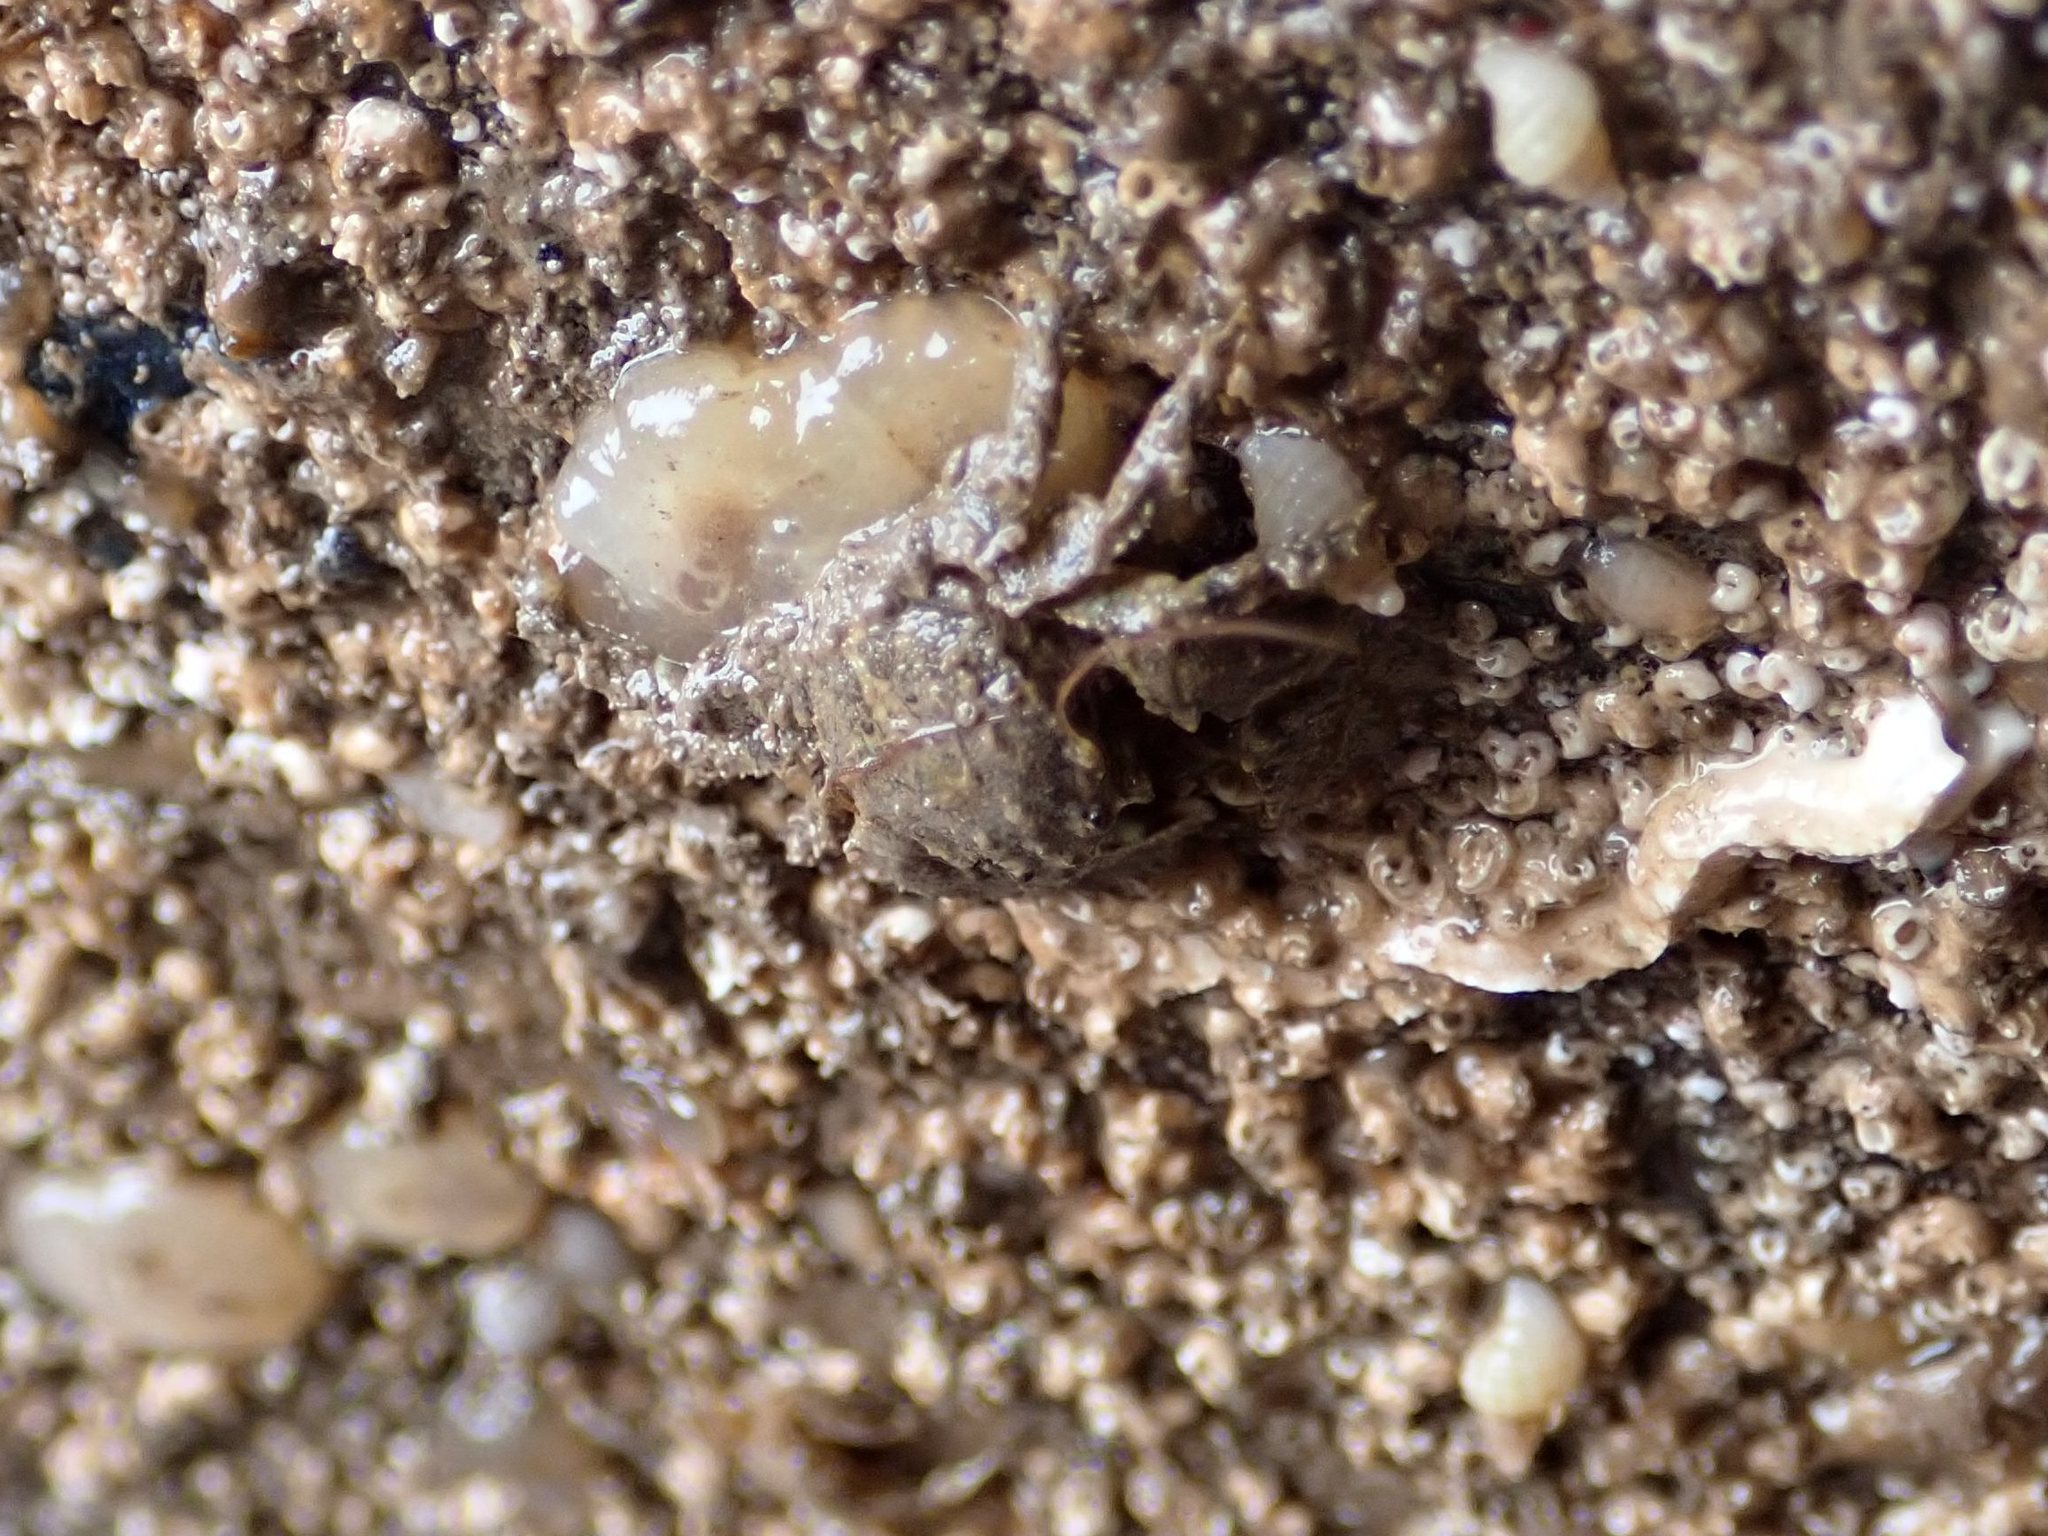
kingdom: Animalia
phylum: Arthropoda
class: Malacostraca
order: Decapoda
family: Porcellanidae
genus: Porcellana
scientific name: Porcellana platycheles
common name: Porcelain crab
